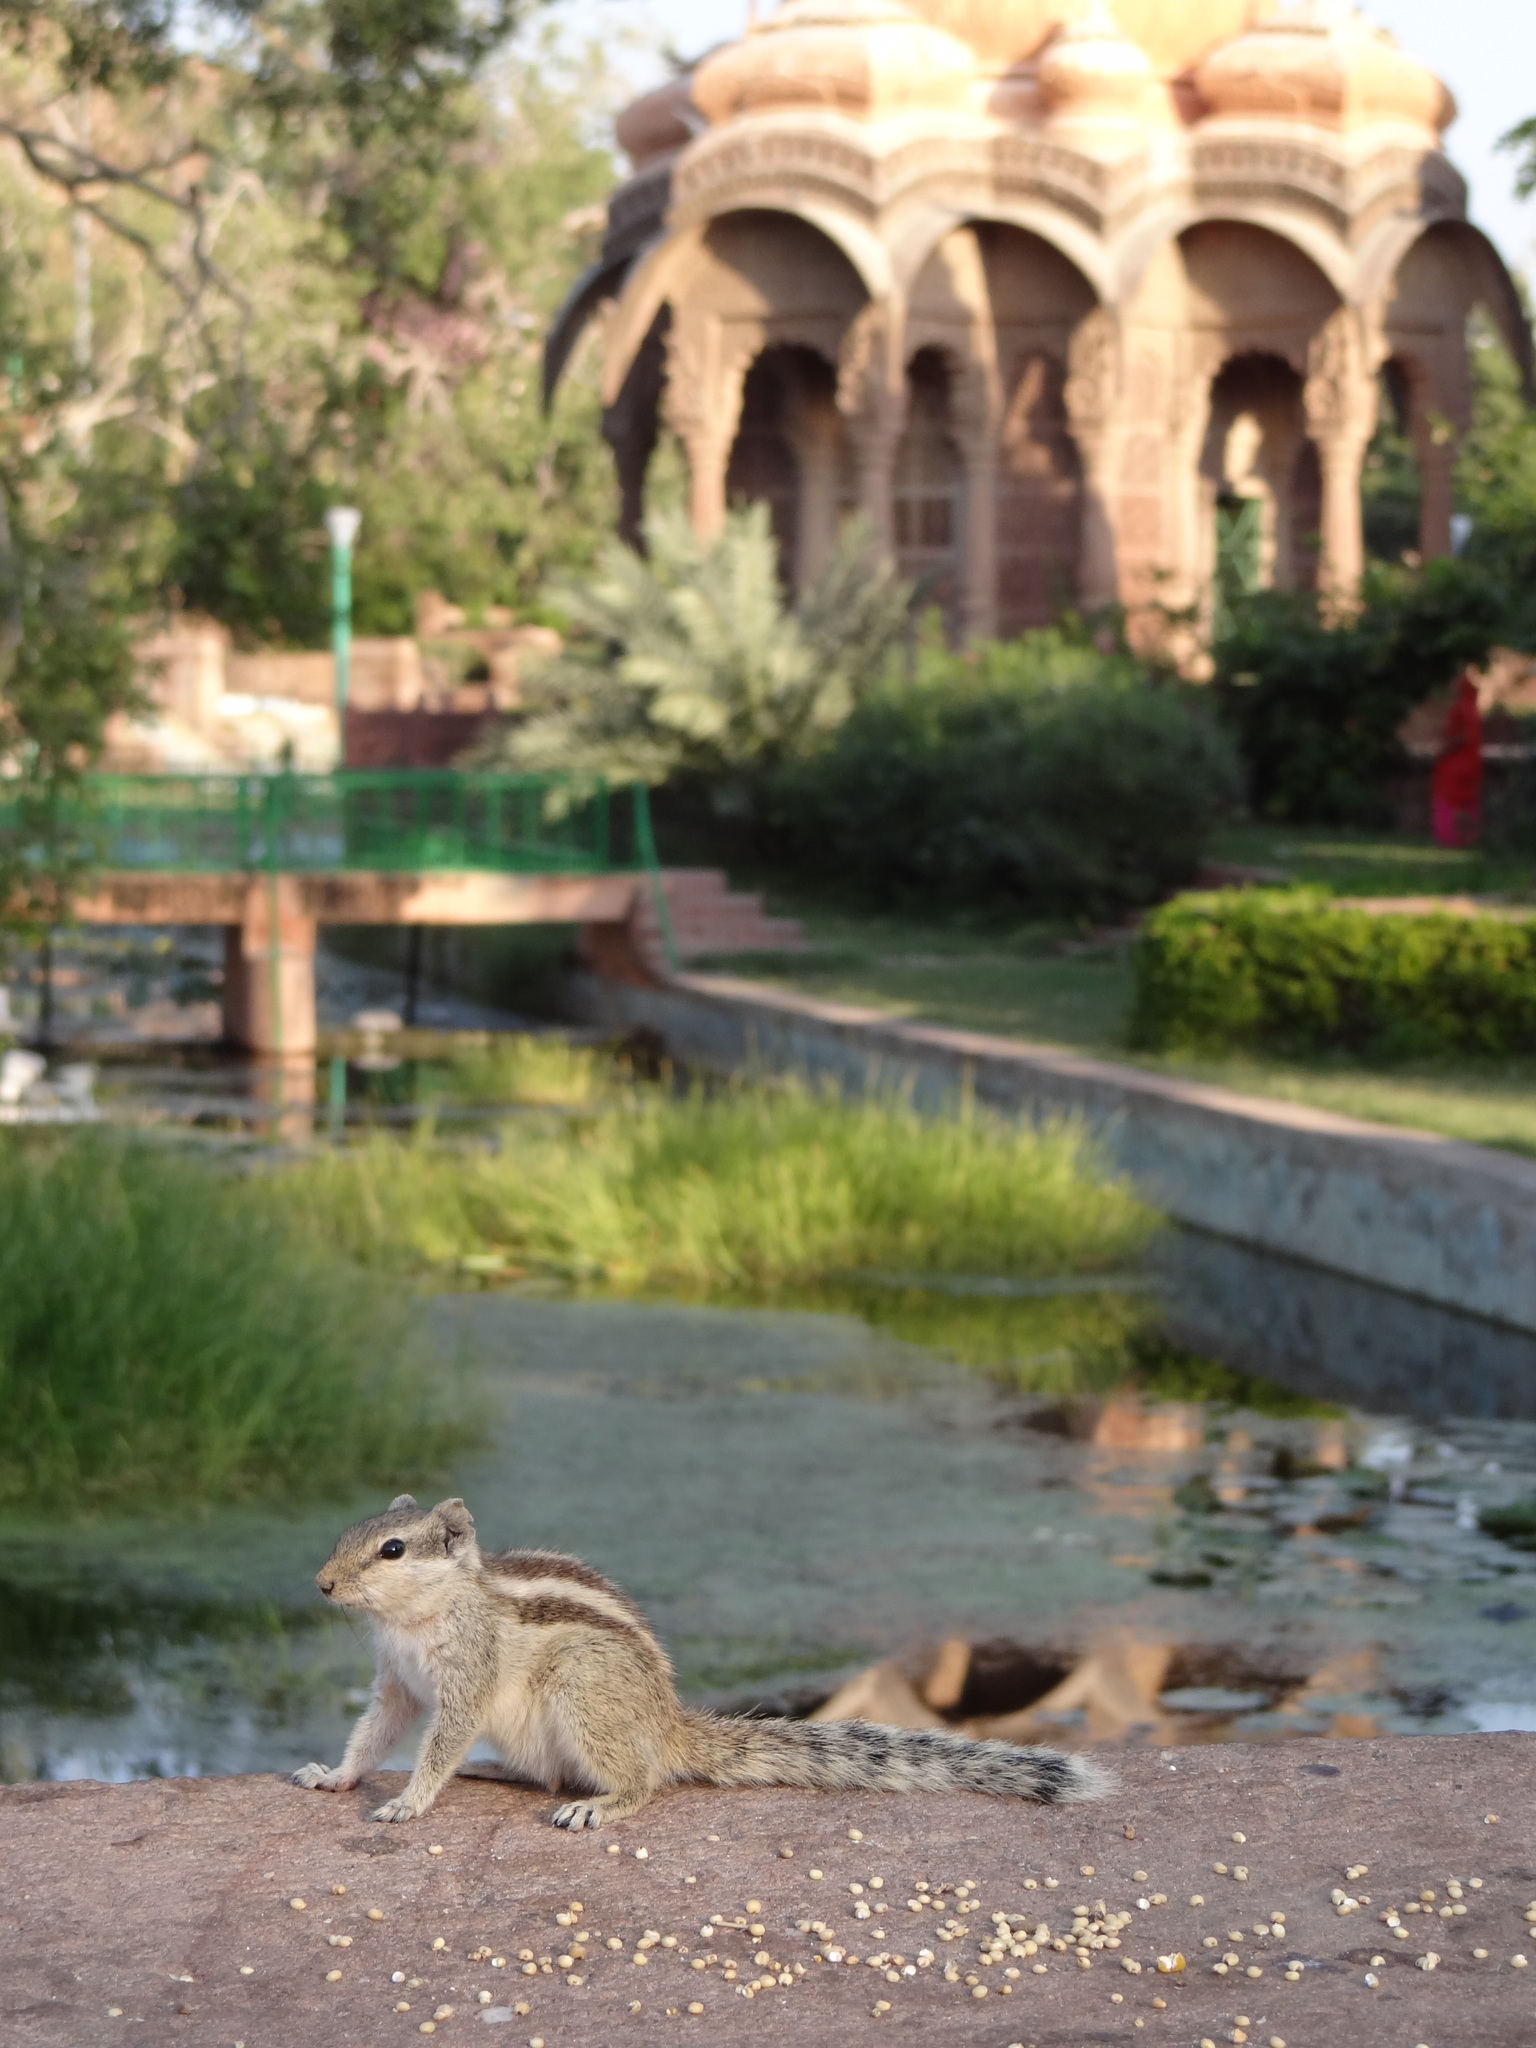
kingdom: Animalia
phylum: Chordata
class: Mammalia
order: Rodentia
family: Sciuridae
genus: Funambulus
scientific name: Funambulus pennantii
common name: Northern palm squirrel
